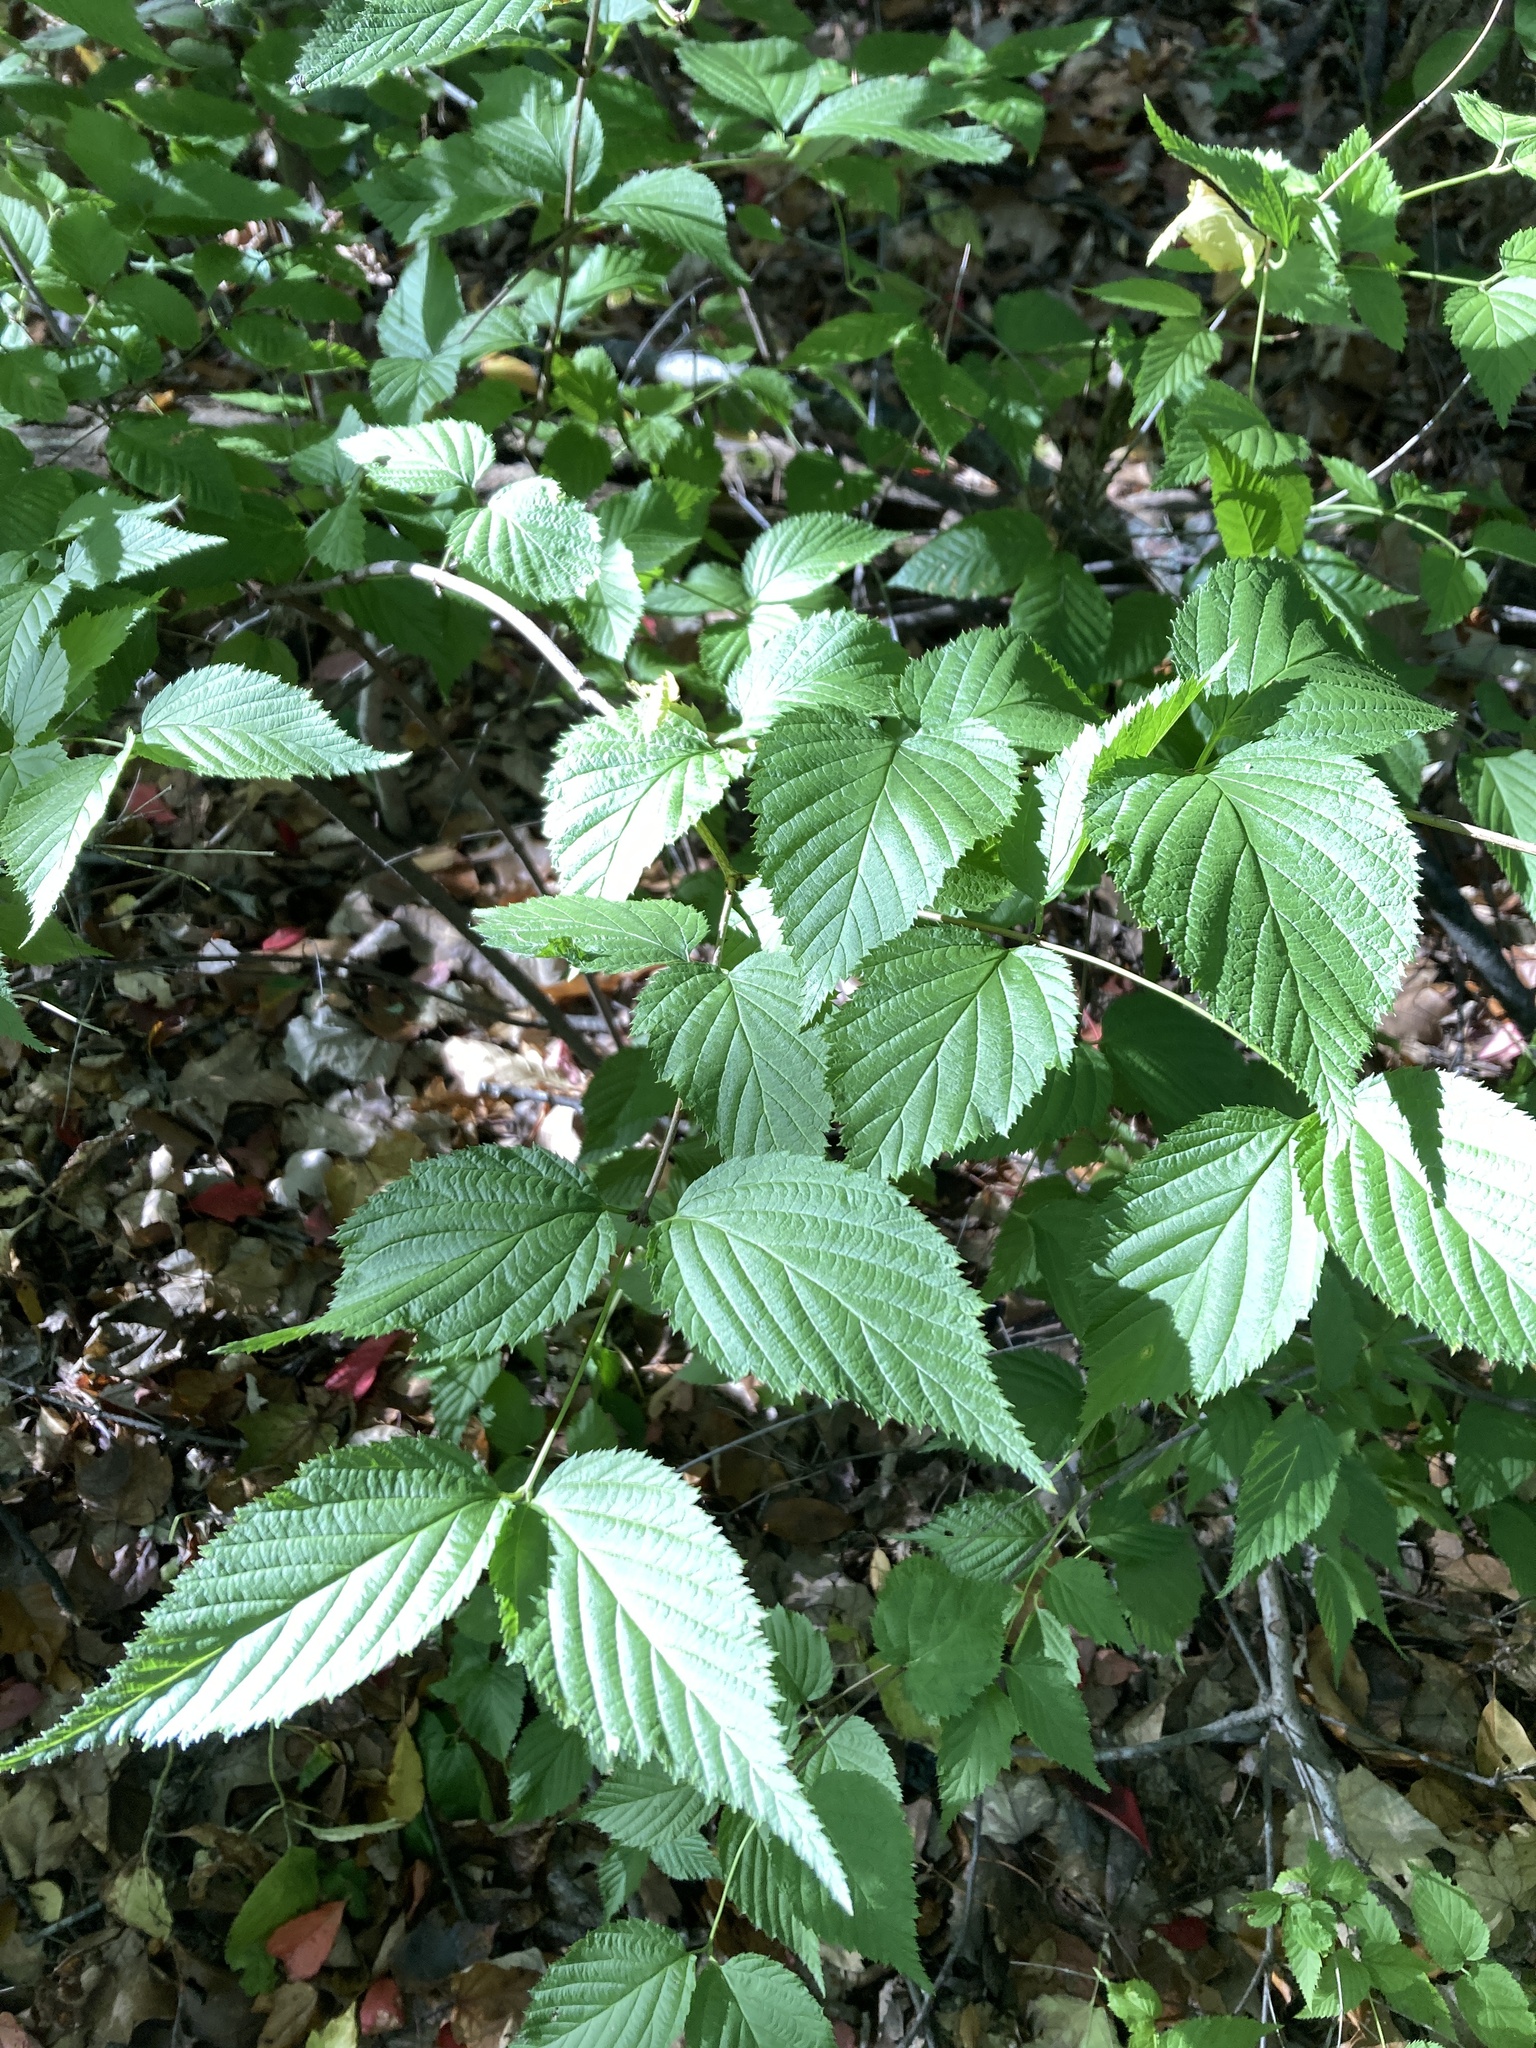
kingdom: Plantae
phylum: Tracheophyta
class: Magnoliopsida
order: Rosales
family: Rosaceae
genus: Rhodotypos
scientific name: Rhodotypos scandens
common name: Jetbead
